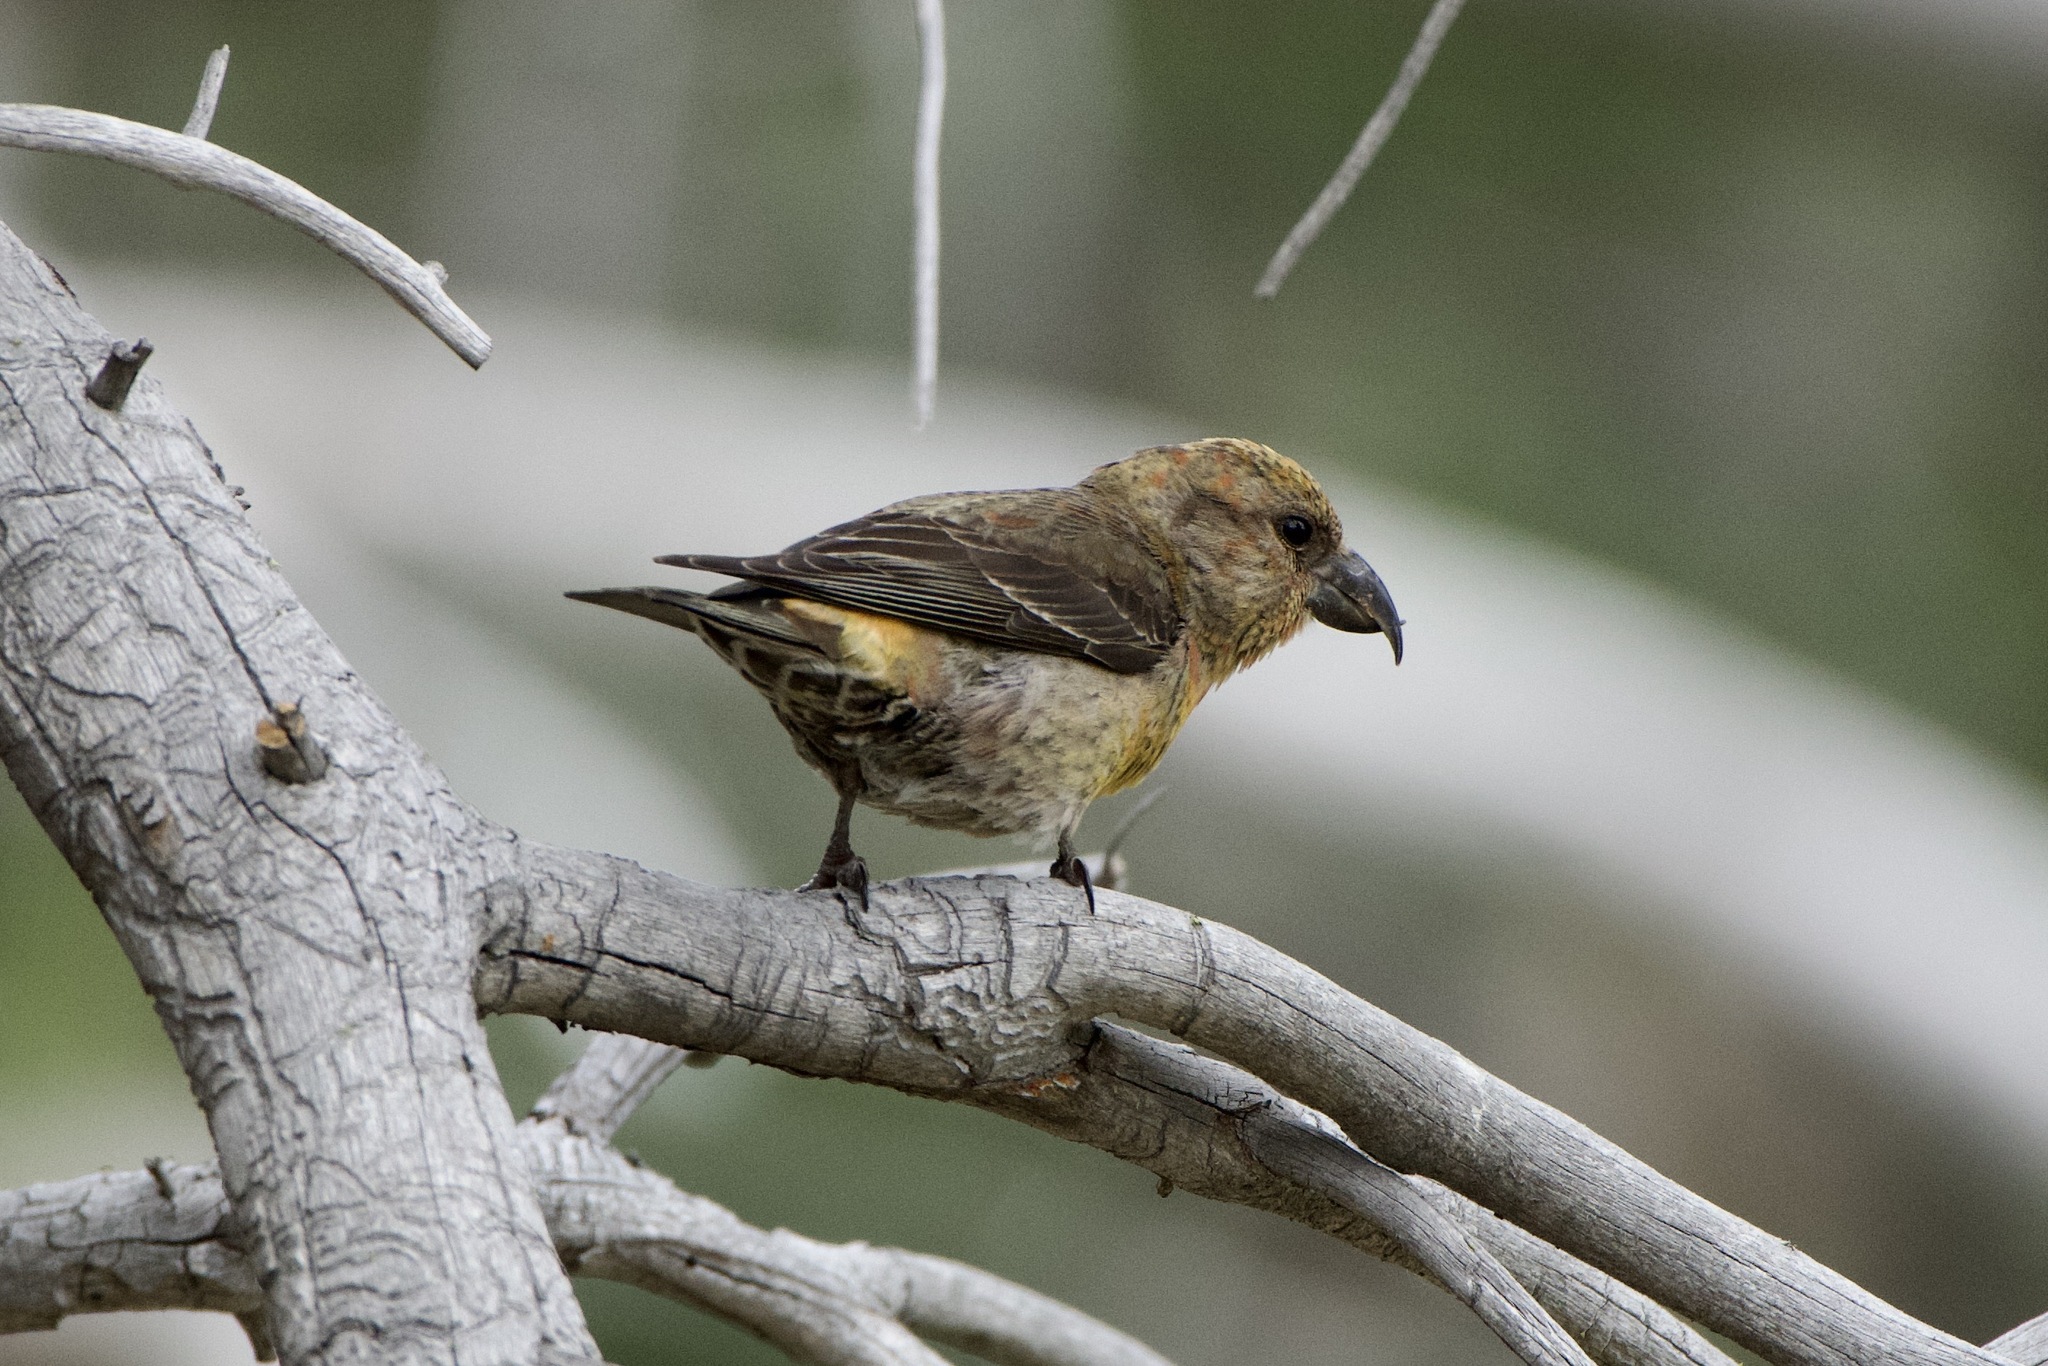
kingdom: Animalia
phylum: Chordata
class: Aves
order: Passeriformes
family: Fringillidae
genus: Loxia
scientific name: Loxia curvirostra
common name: Red crossbill
